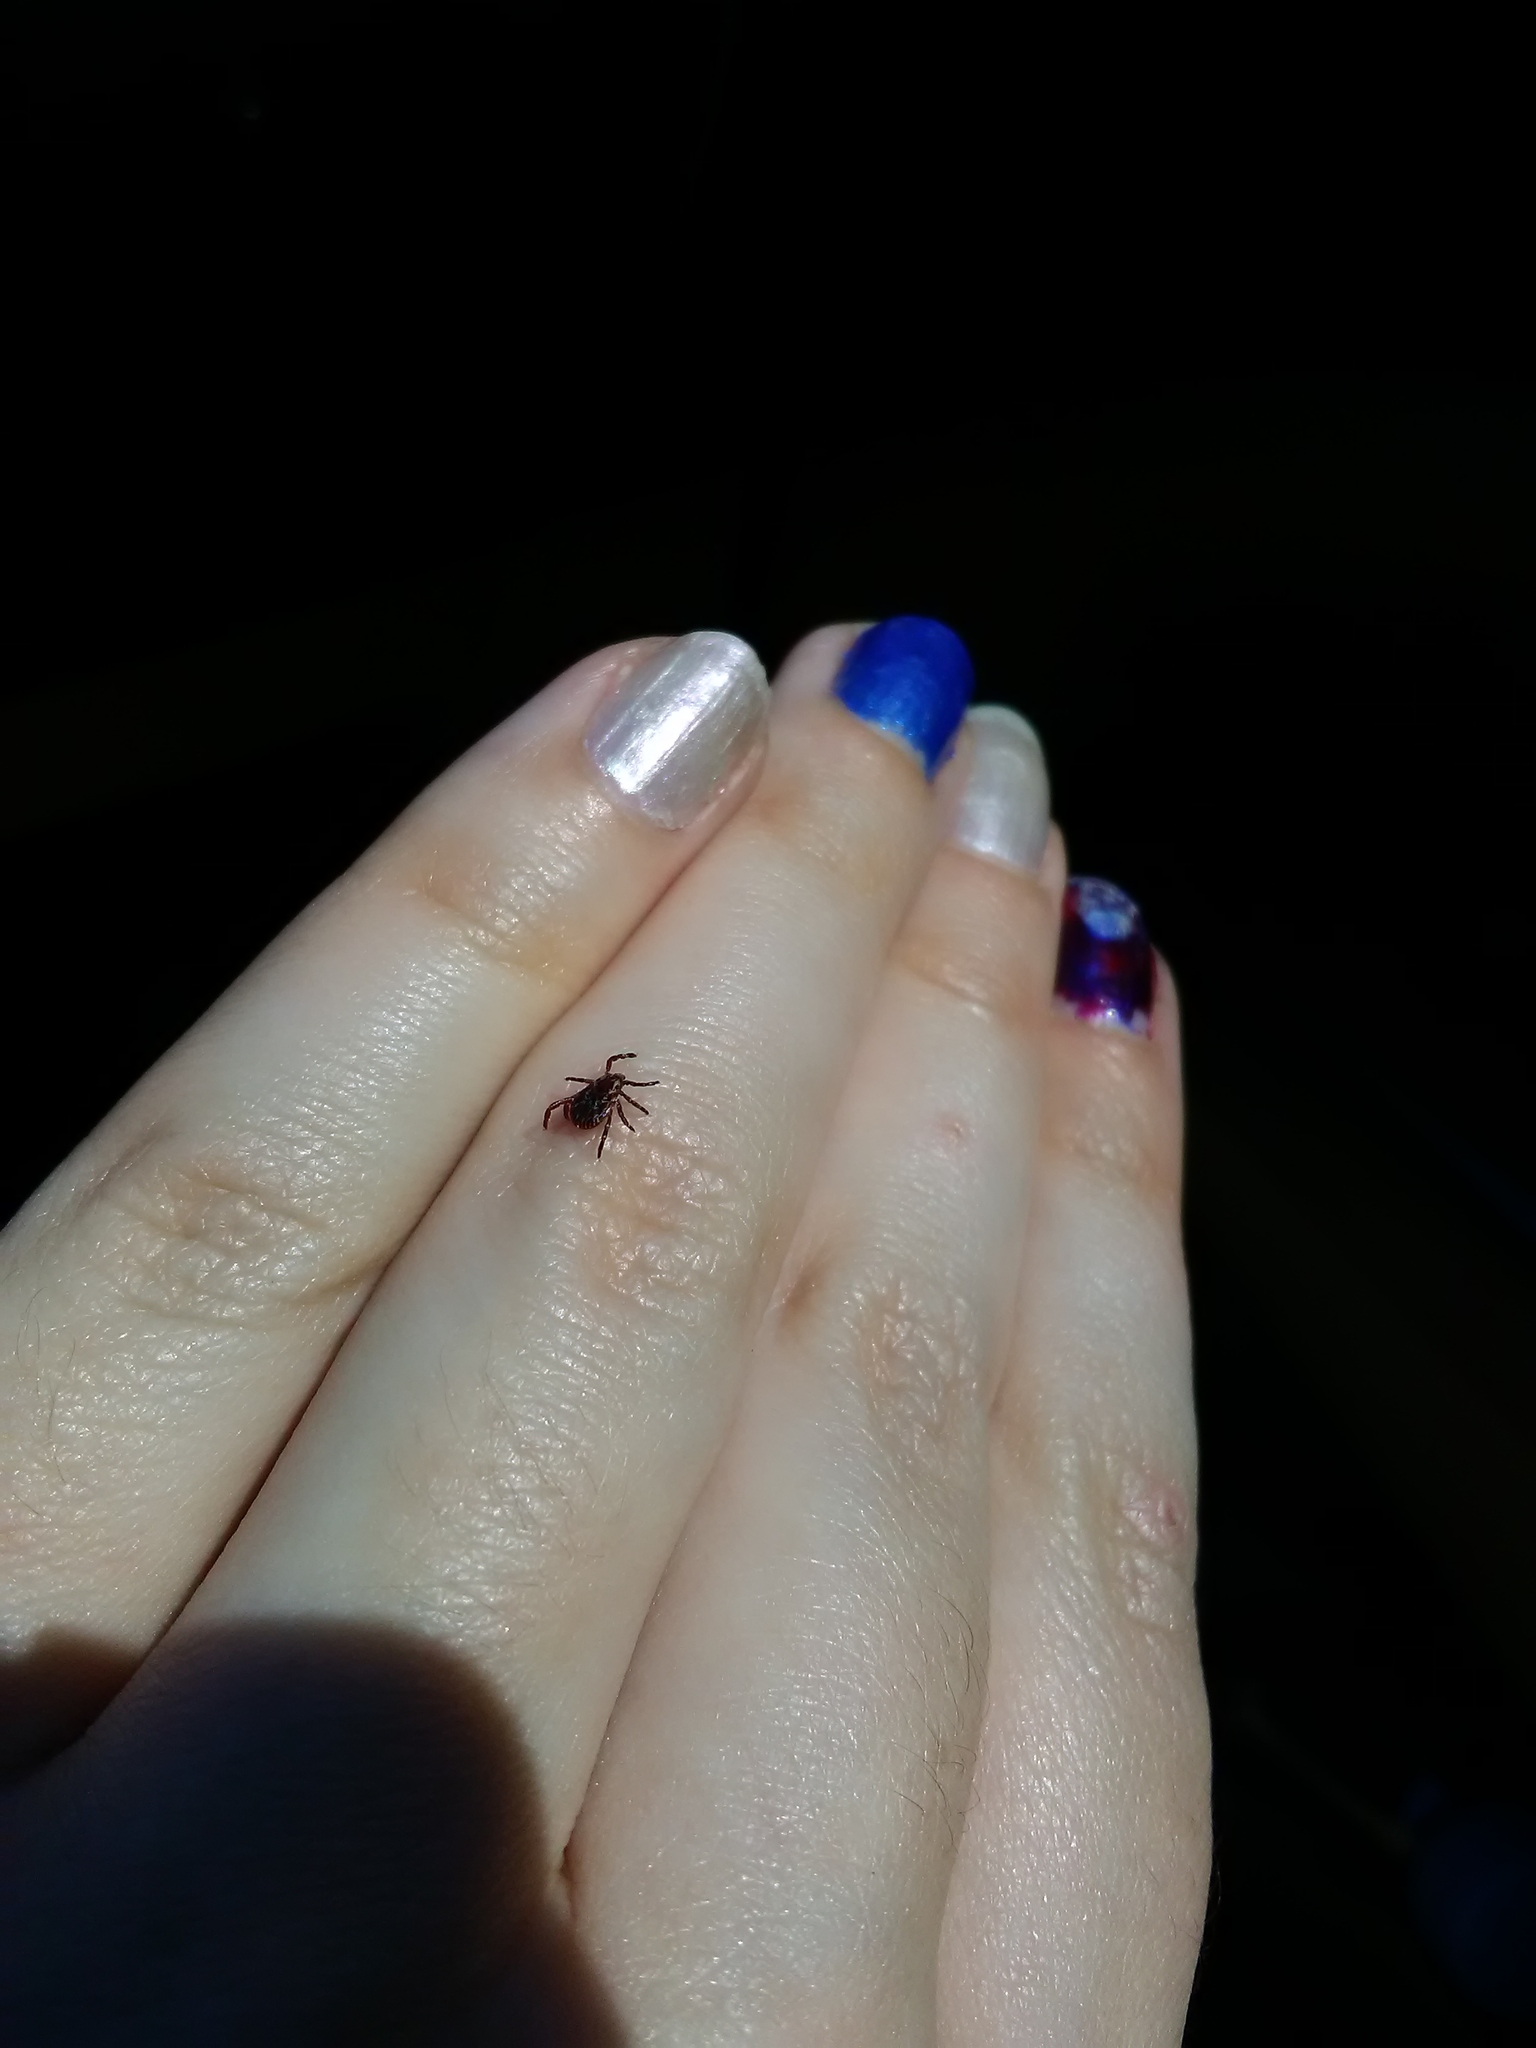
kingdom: Animalia
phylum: Arthropoda
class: Arachnida
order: Ixodida
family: Ixodidae
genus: Dermacentor
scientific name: Dermacentor variabilis
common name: American dog tick
